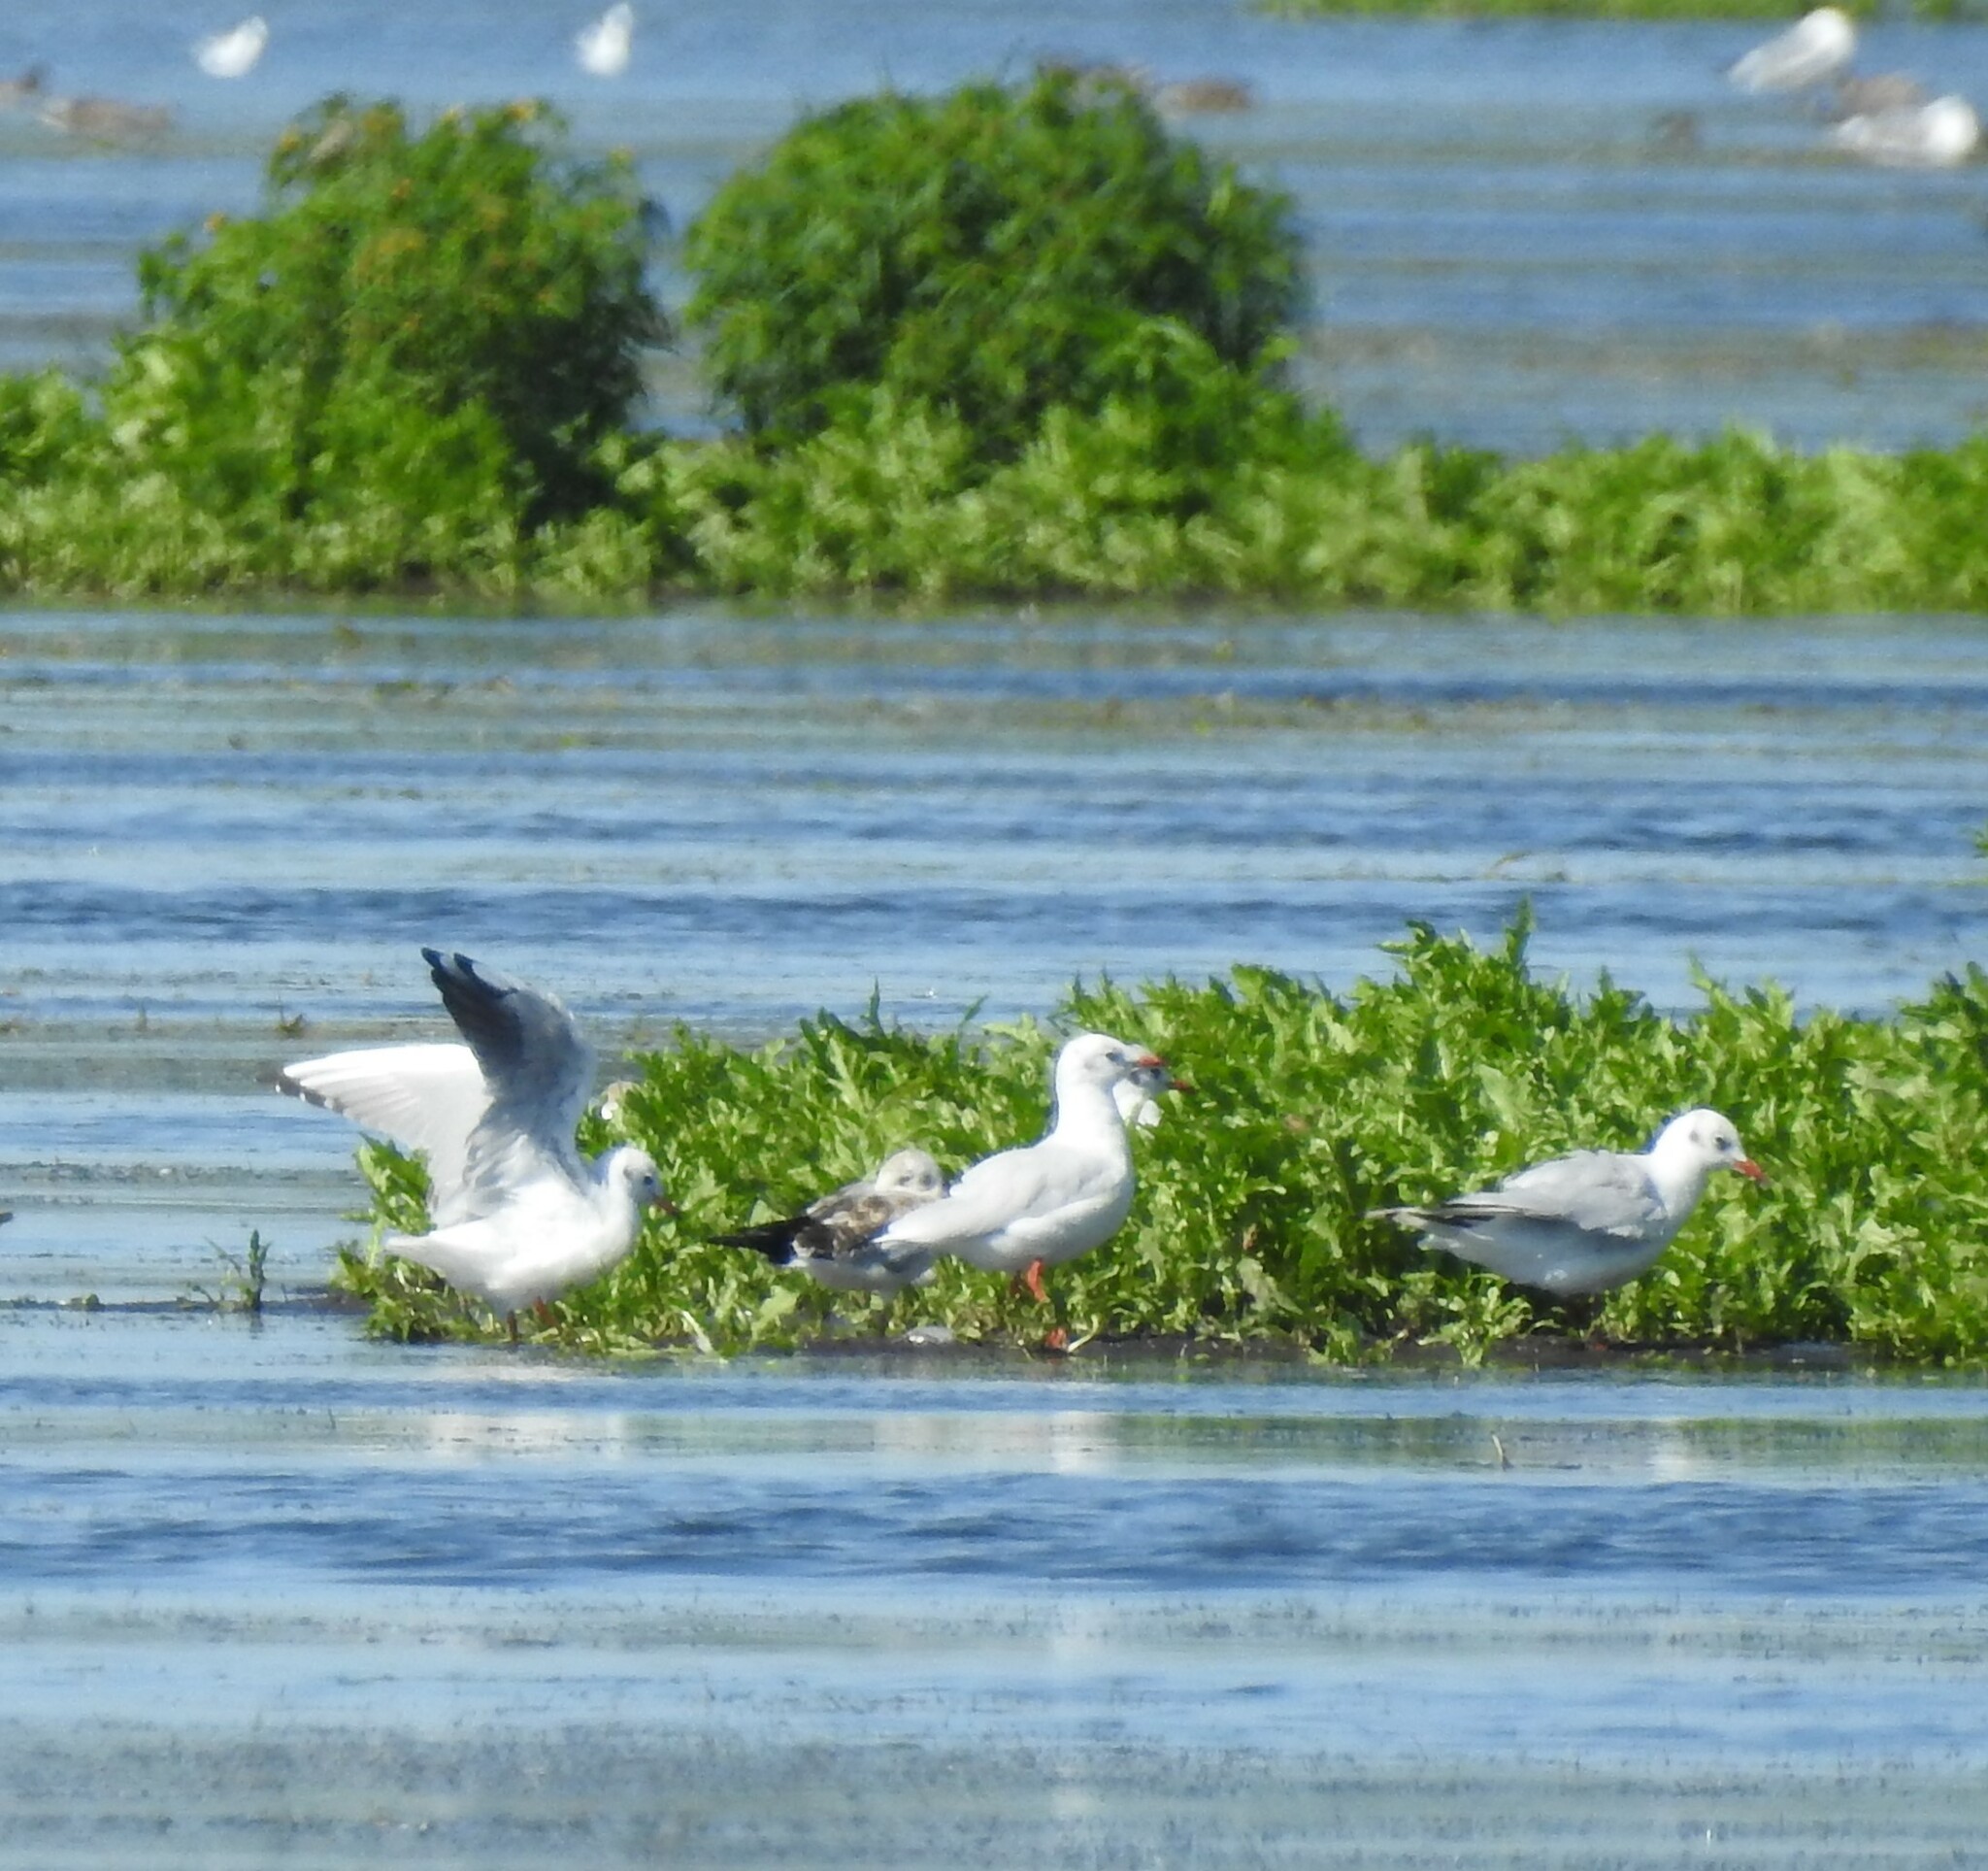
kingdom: Animalia
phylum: Chordata
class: Aves
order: Charadriiformes
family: Laridae
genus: Chroicocephalus
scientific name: Chroicocephalus ridibundus
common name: Black-headed gull
